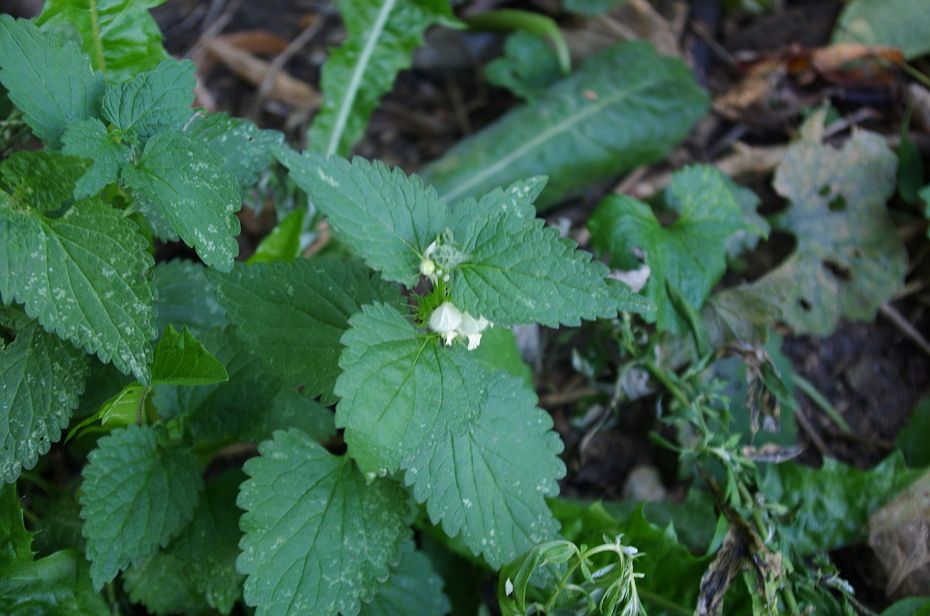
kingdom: Plantae
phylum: Tracheophyta
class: Magnoliopsida
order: Lamiales
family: Lamiaceae
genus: Lamium
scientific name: Lamium album
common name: White dead-nettle
